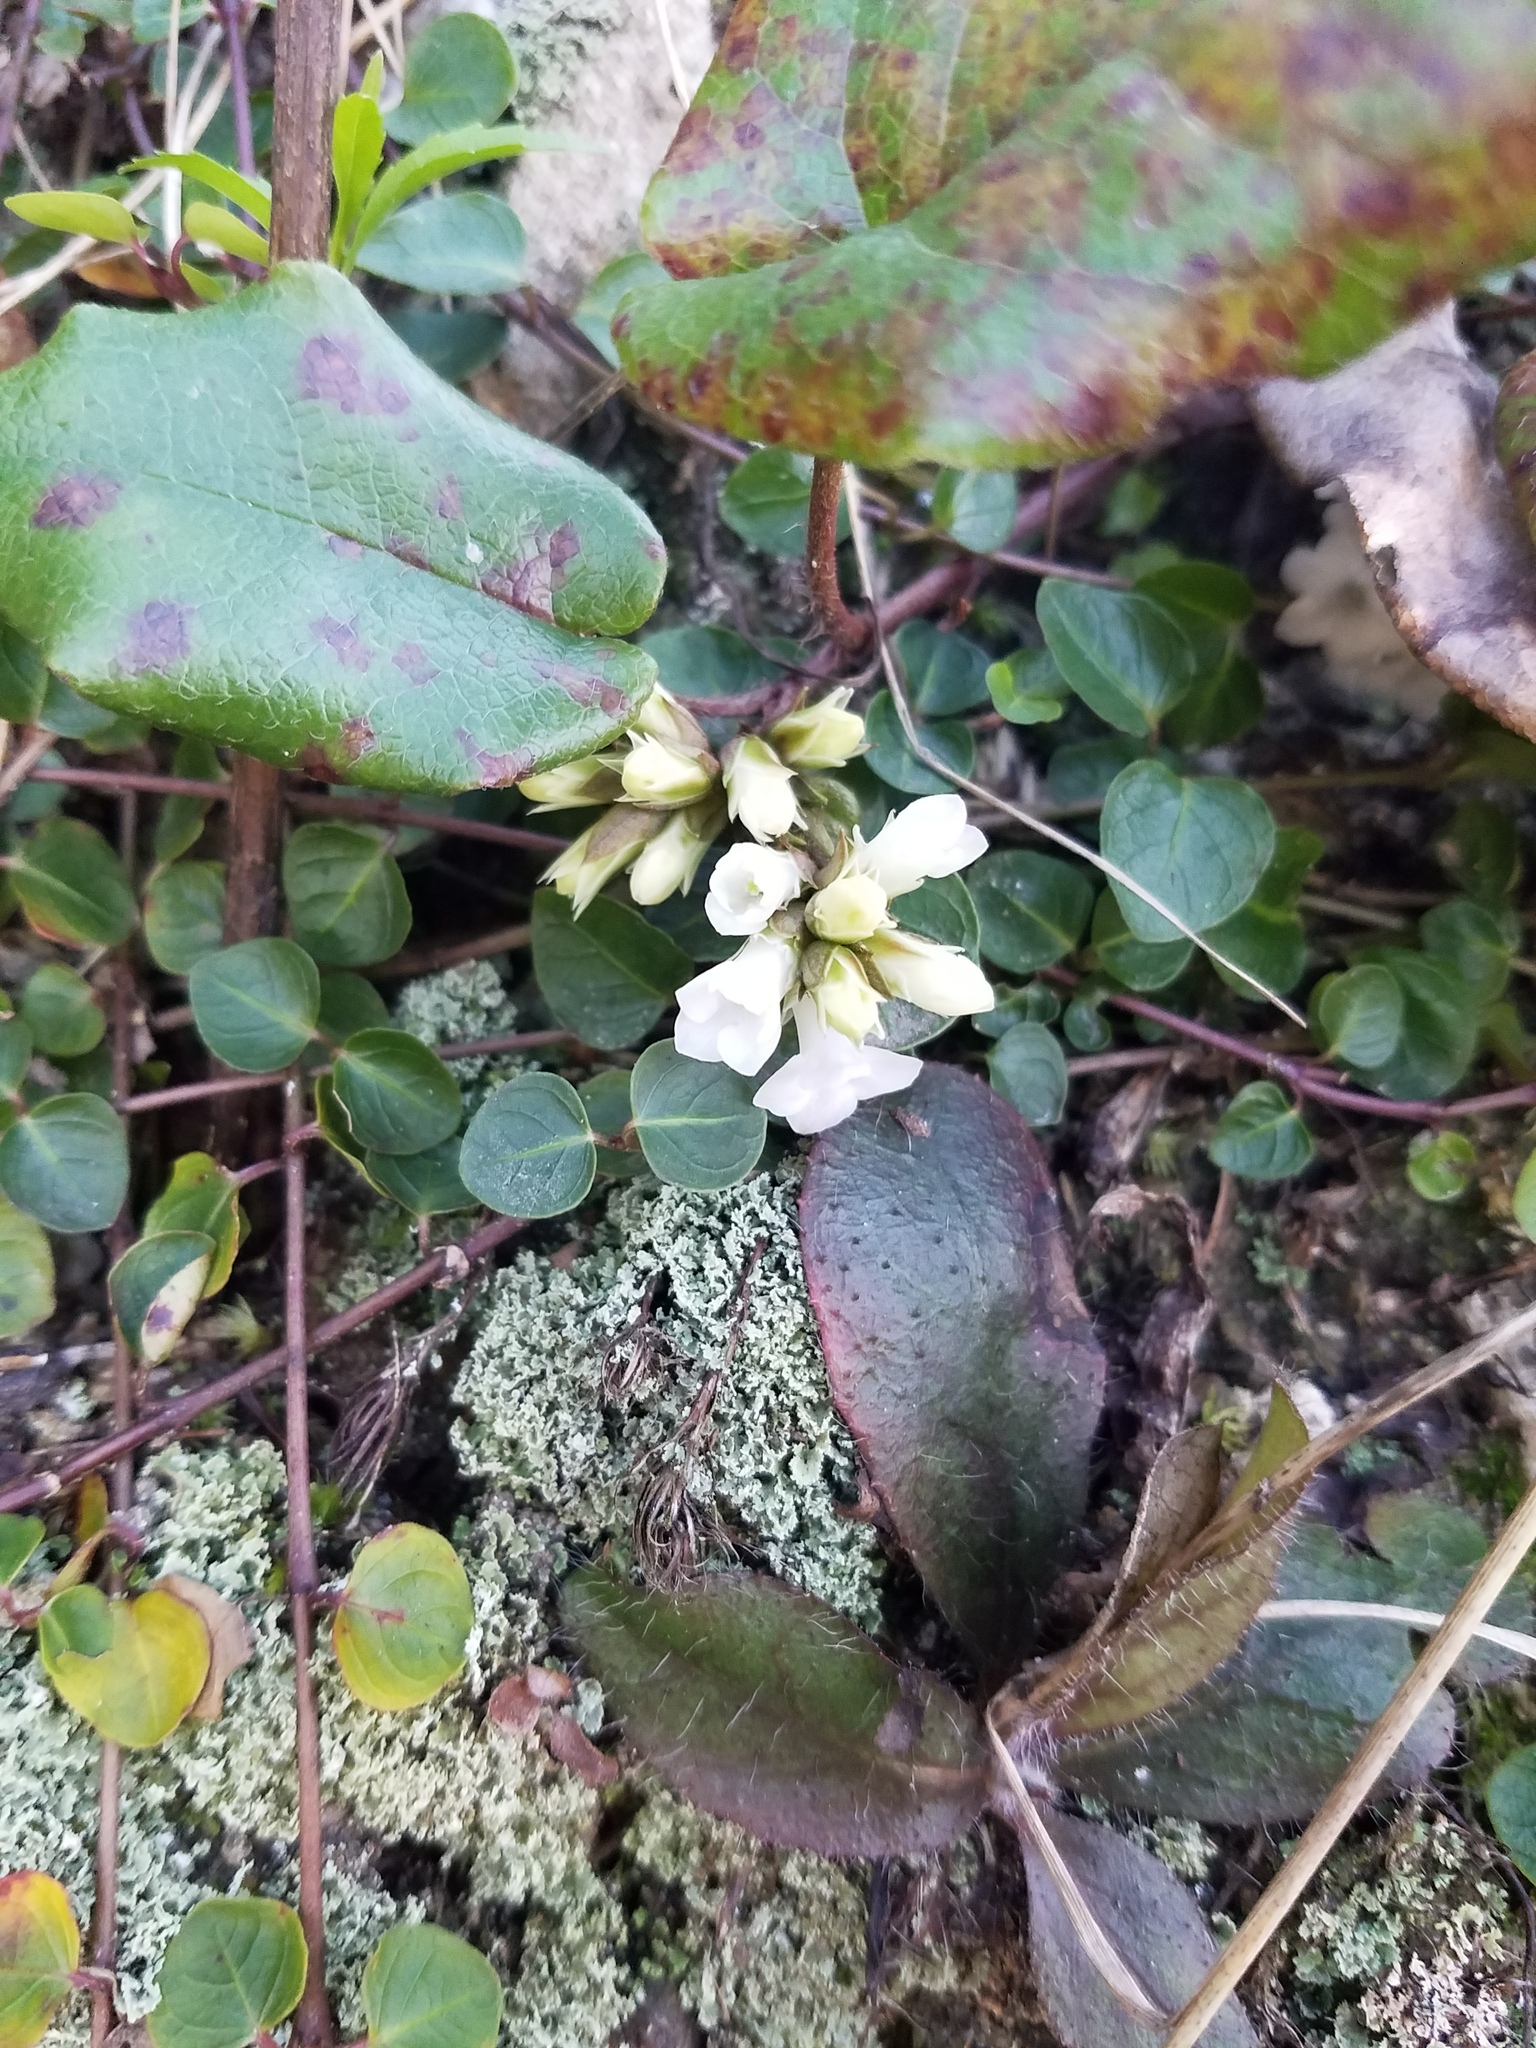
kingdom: Plantae
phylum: Tracheophyta
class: Magnoliopsida
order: Ericales
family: Ericaceae
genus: Epigaea
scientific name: Epigaea repens
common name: Gravelroot
